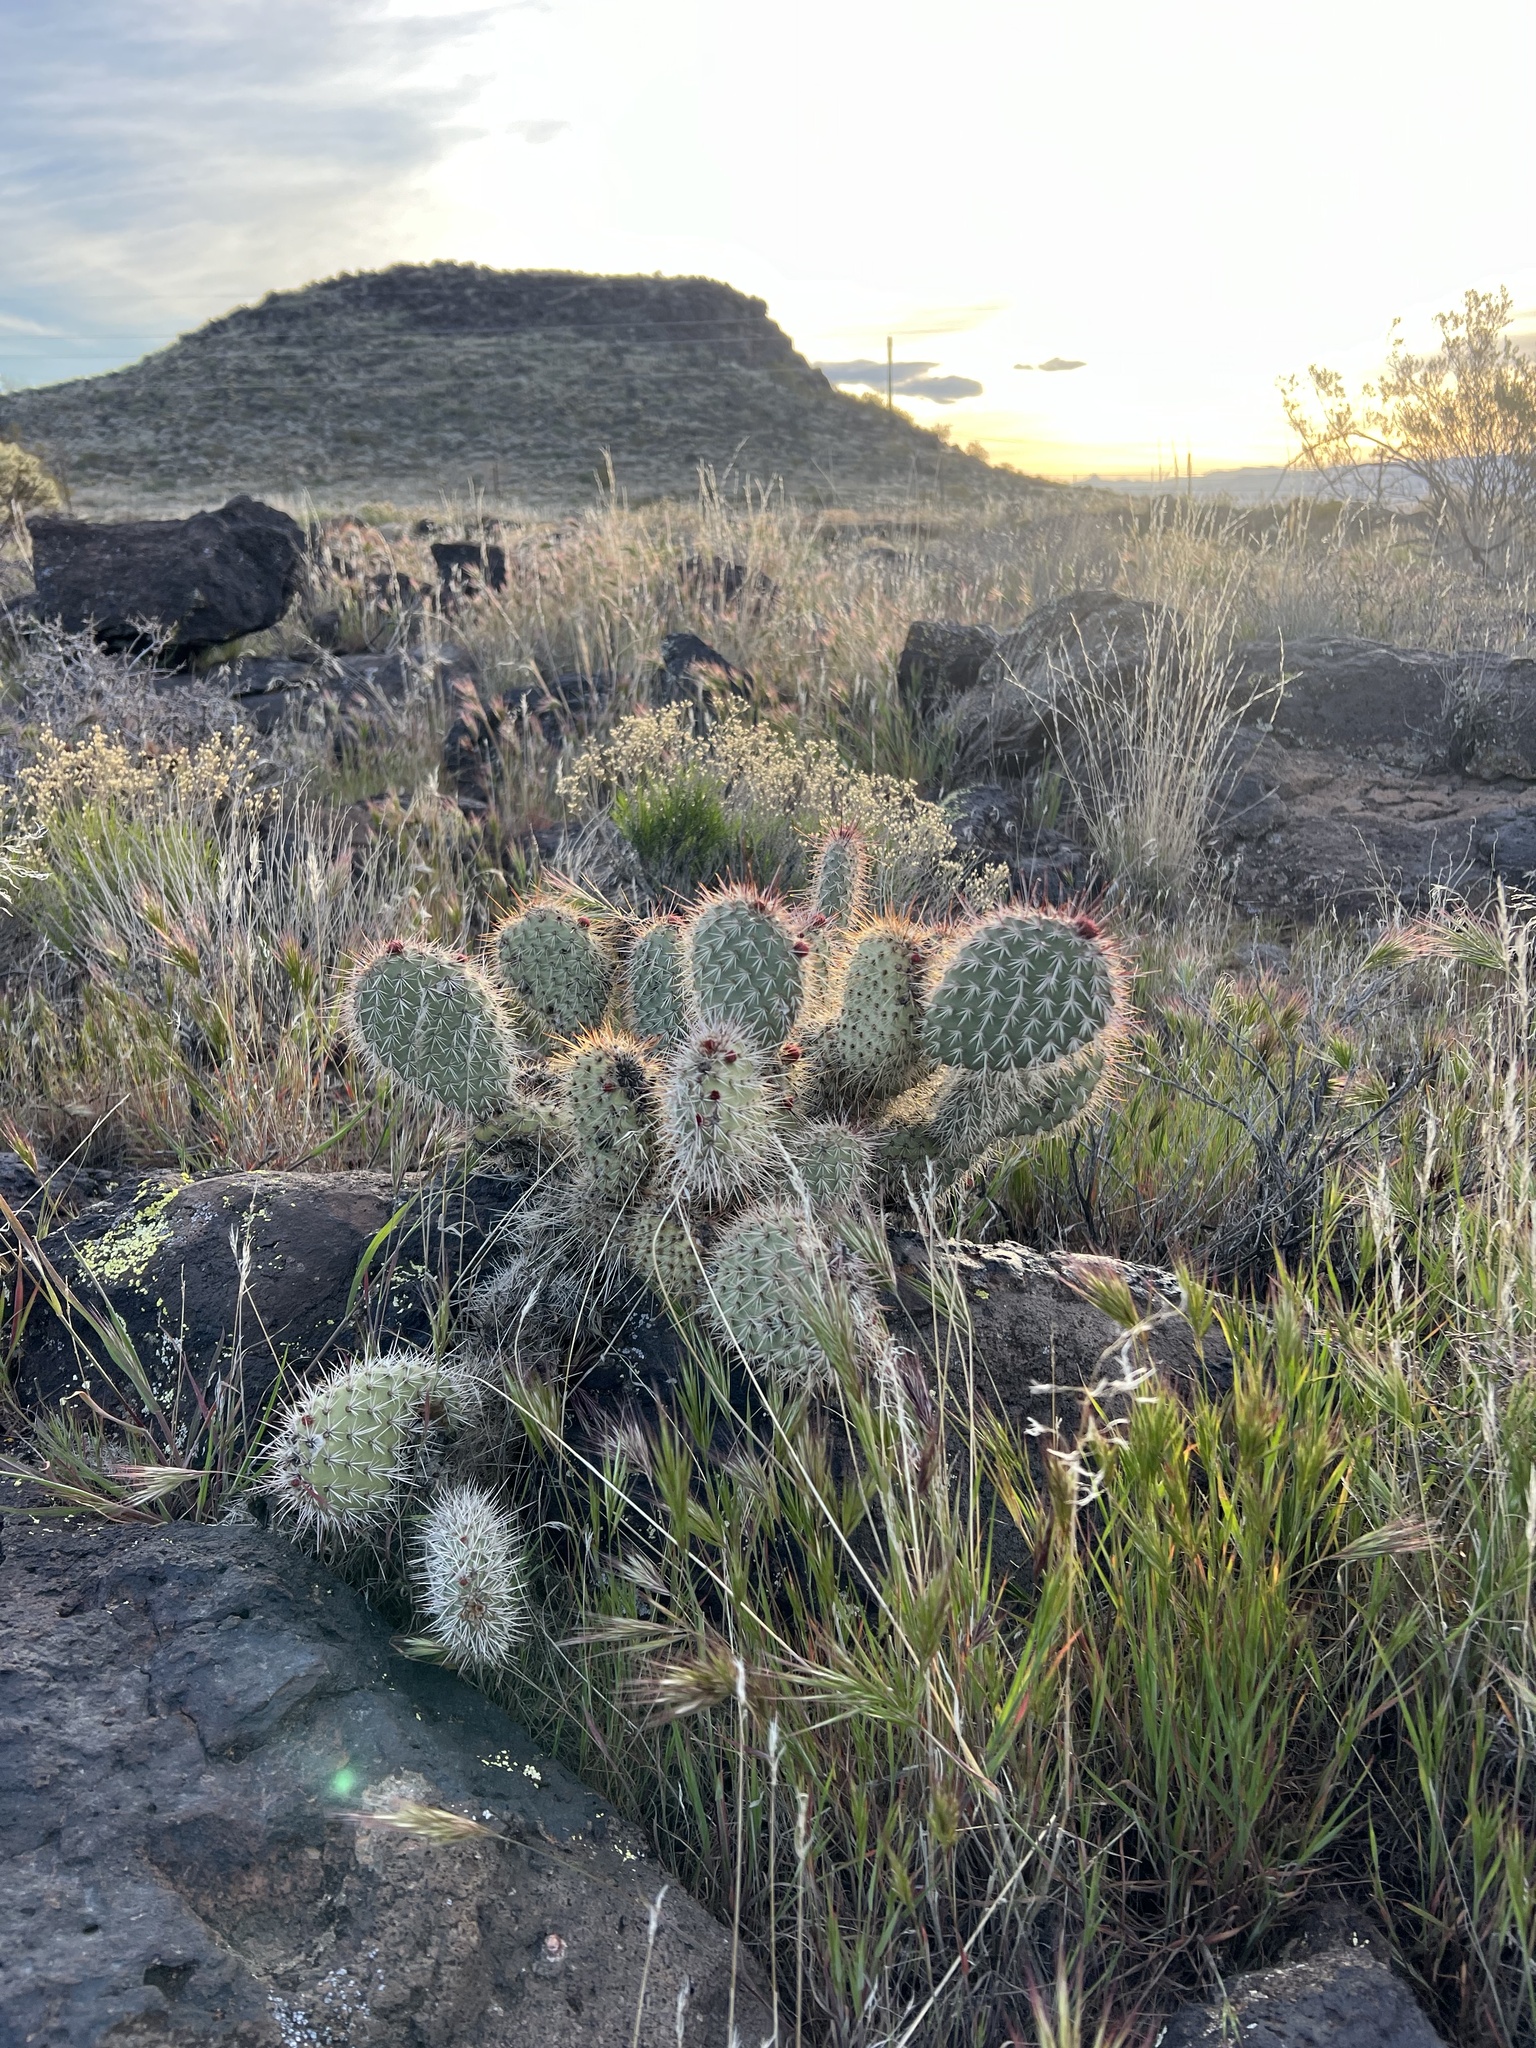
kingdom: Plantae
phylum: Tracheophyta
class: Magnoliopsida
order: Caryophyllales
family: Cactaceae
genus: Opuntia
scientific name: Opuntia polyacantha
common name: Plains prickly-pear
